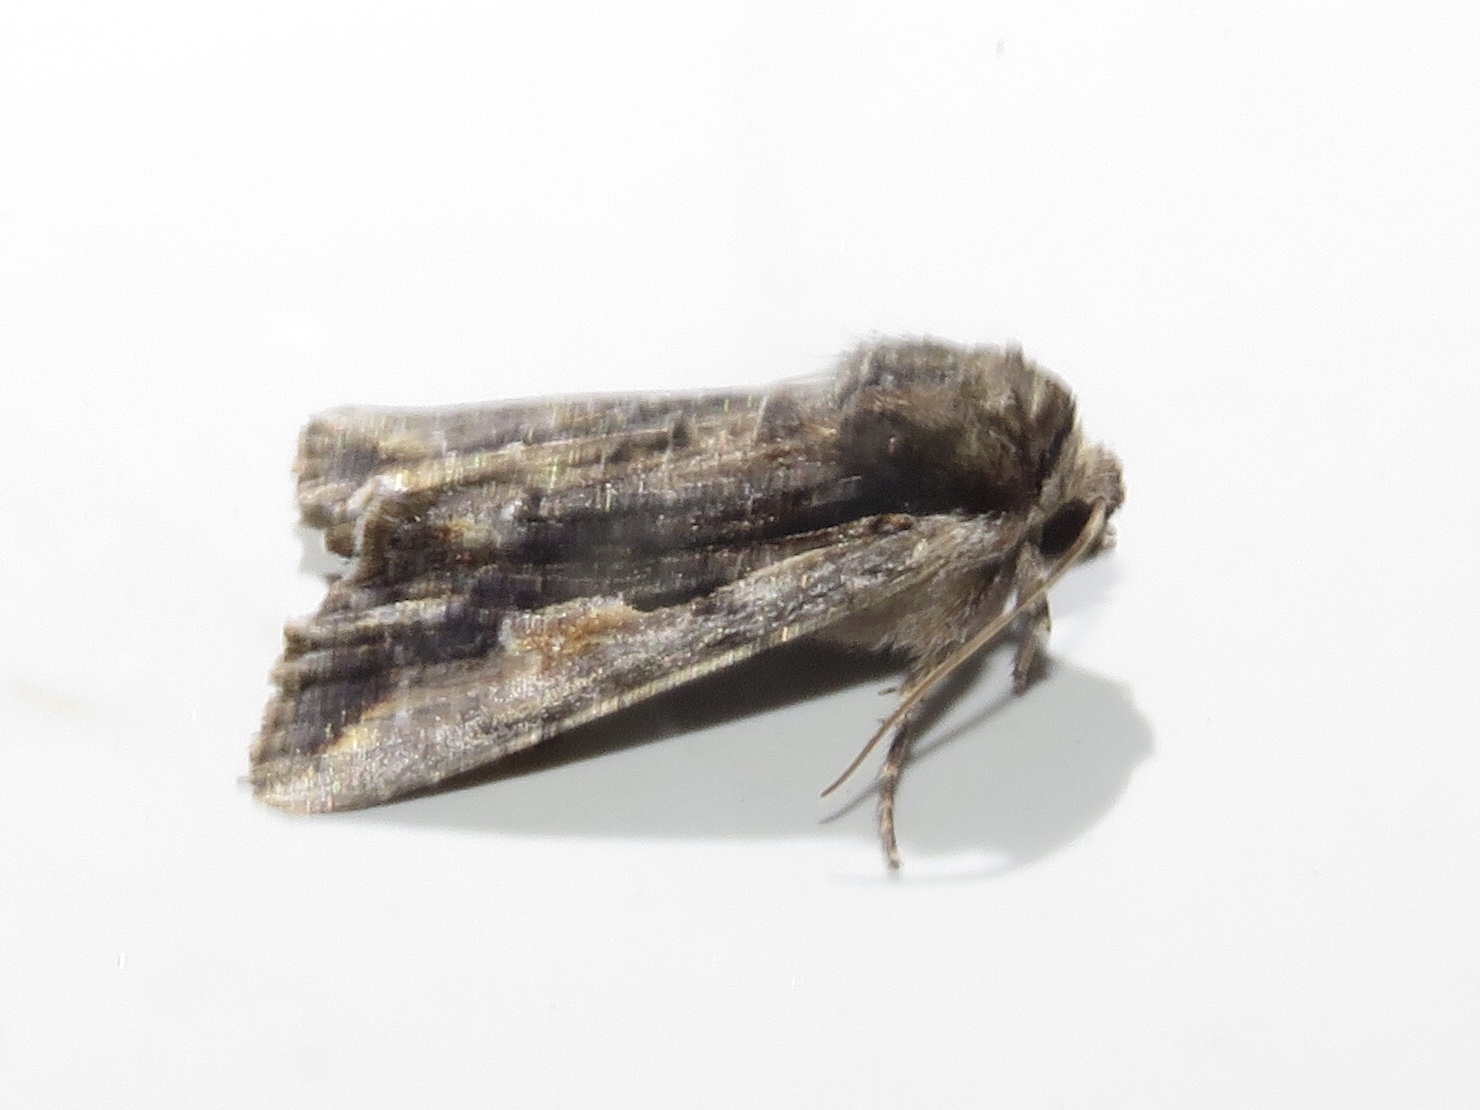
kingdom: Animalia
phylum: Arthropoda
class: Insecta
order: Lepidoptera
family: Noctuidae
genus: Achatia
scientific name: Achatia evicta
